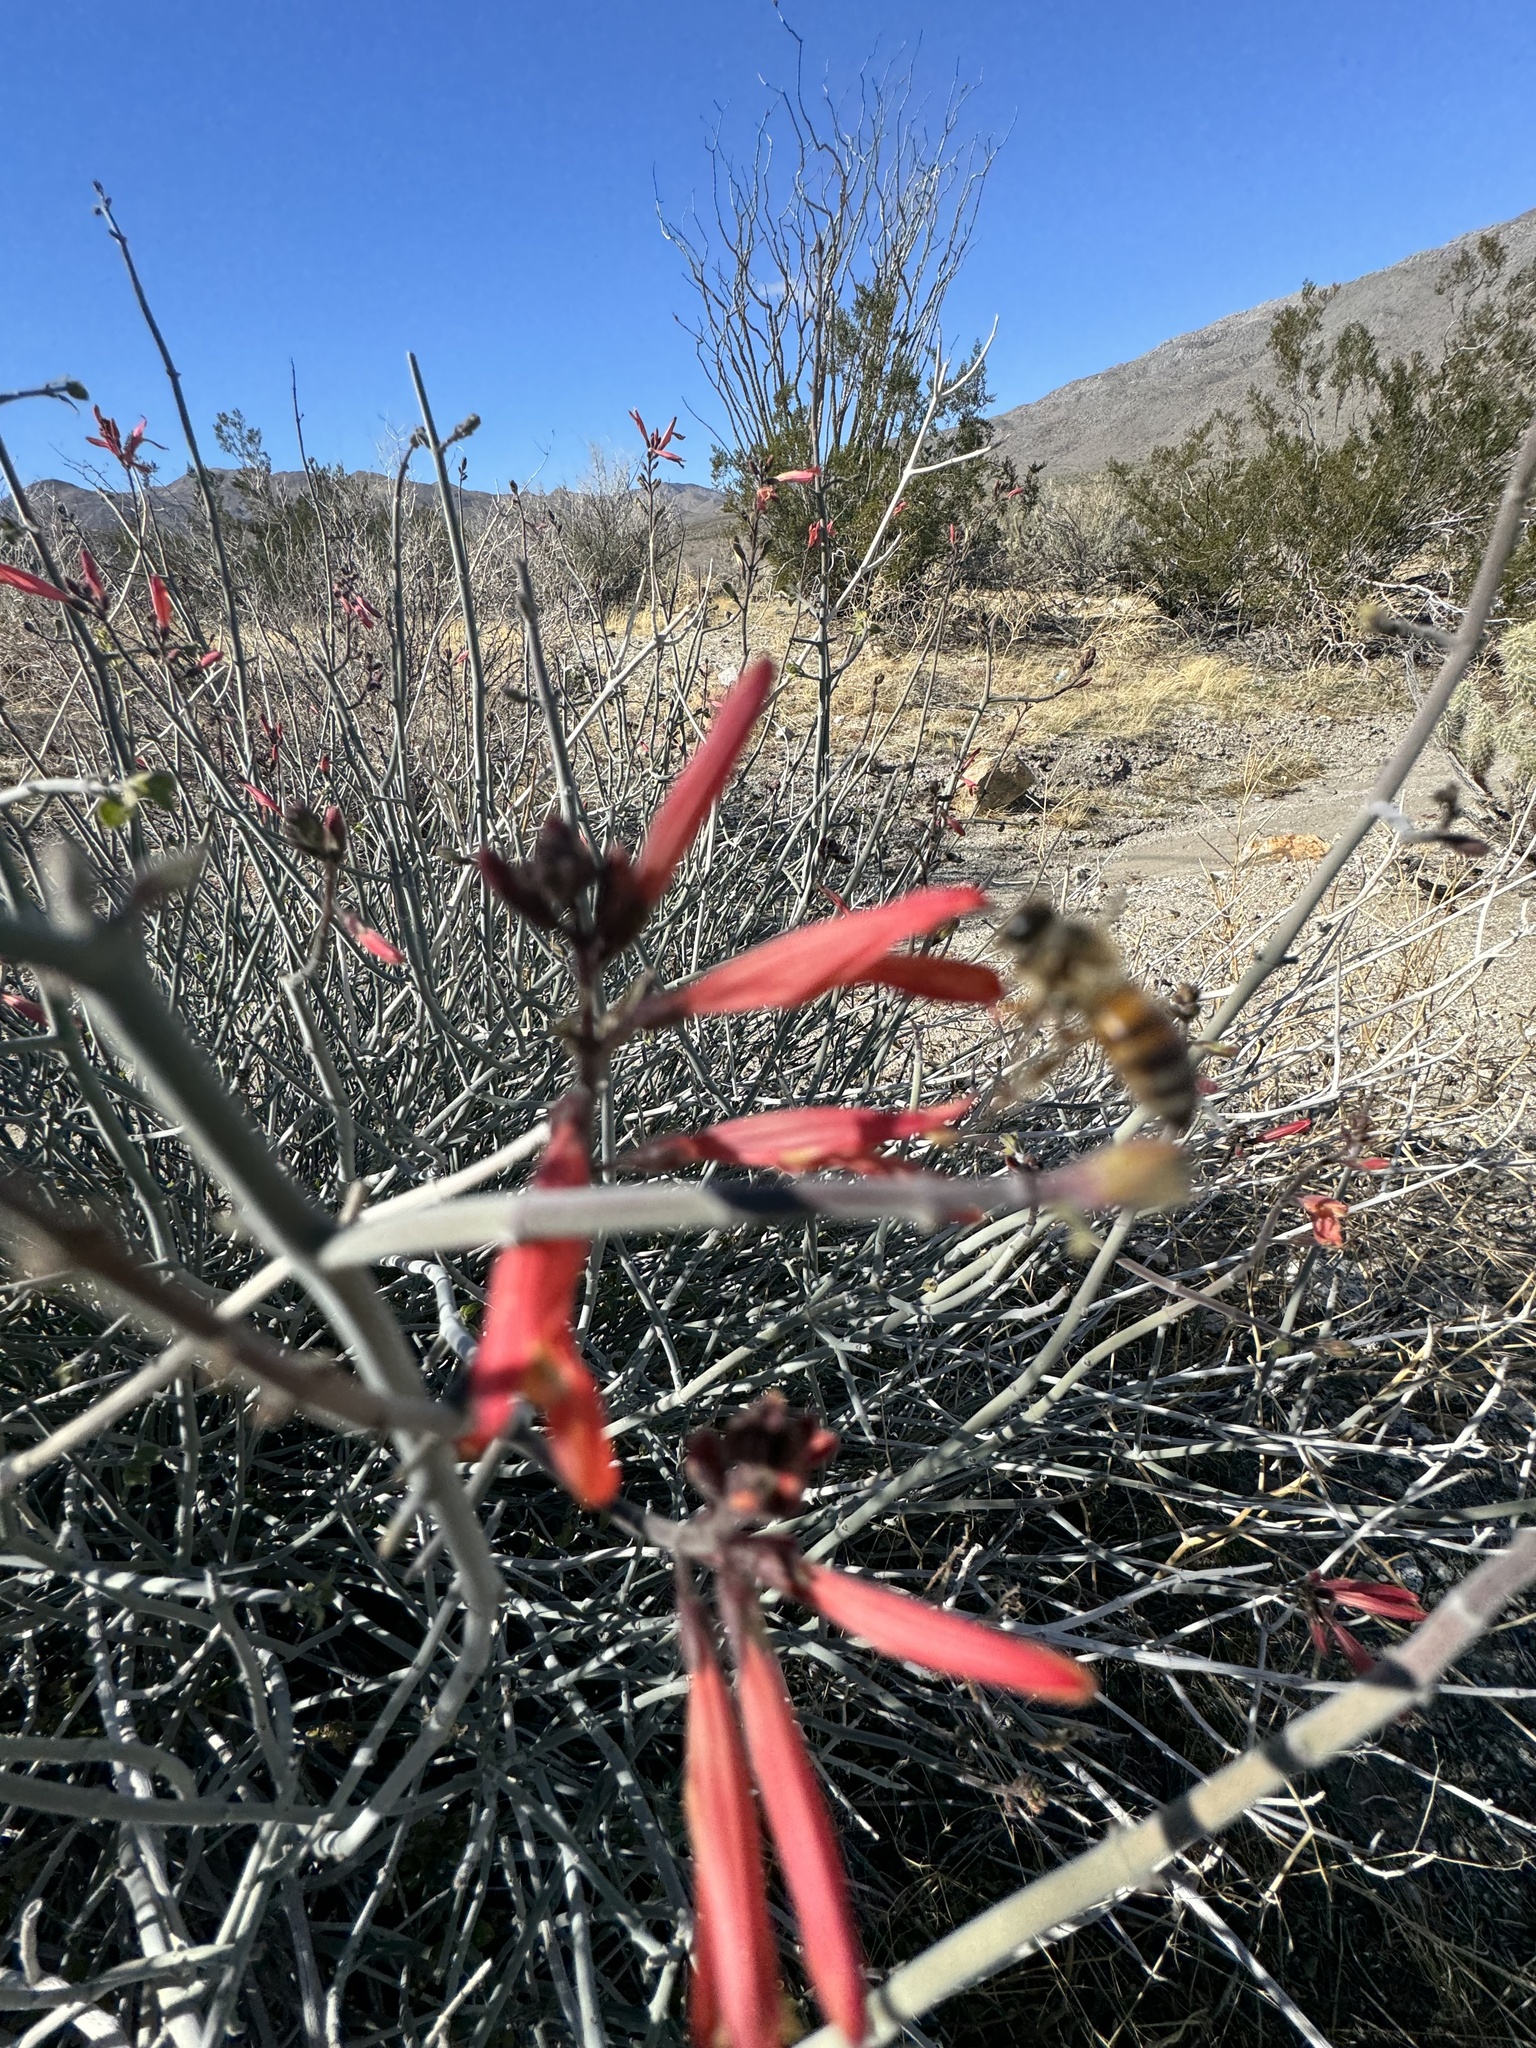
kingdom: Animalia
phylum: Arthropoda
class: Insecta
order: Hymenoptera
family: Apidae
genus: Apis
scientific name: Apis mellifera
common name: Honey bee
